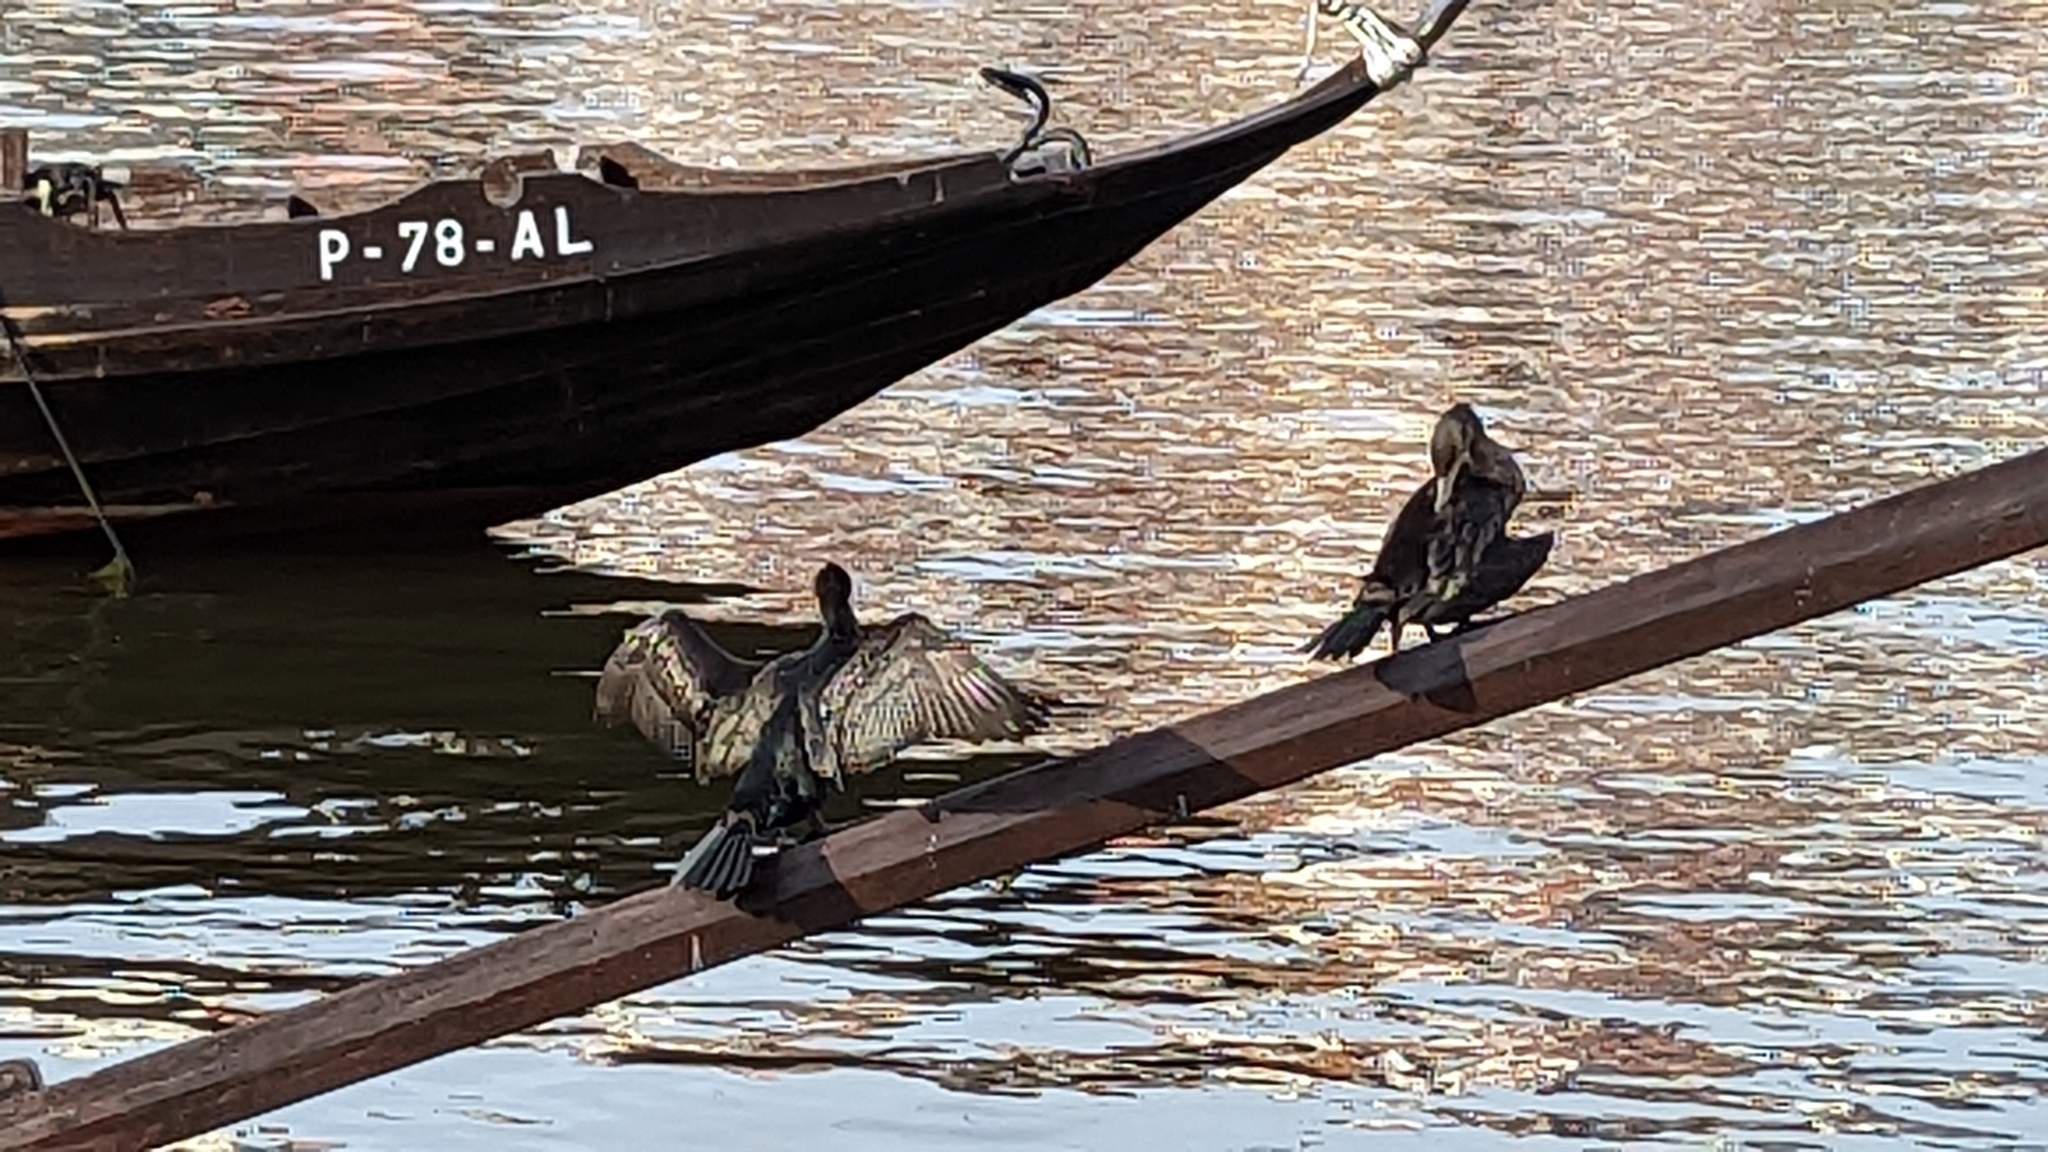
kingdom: Animalia
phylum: Chordata
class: Aves
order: Suliformes
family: Phalacrocoracidae
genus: Phalacrocorax
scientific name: Phalacrocorax carbo
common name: Great cormorant
